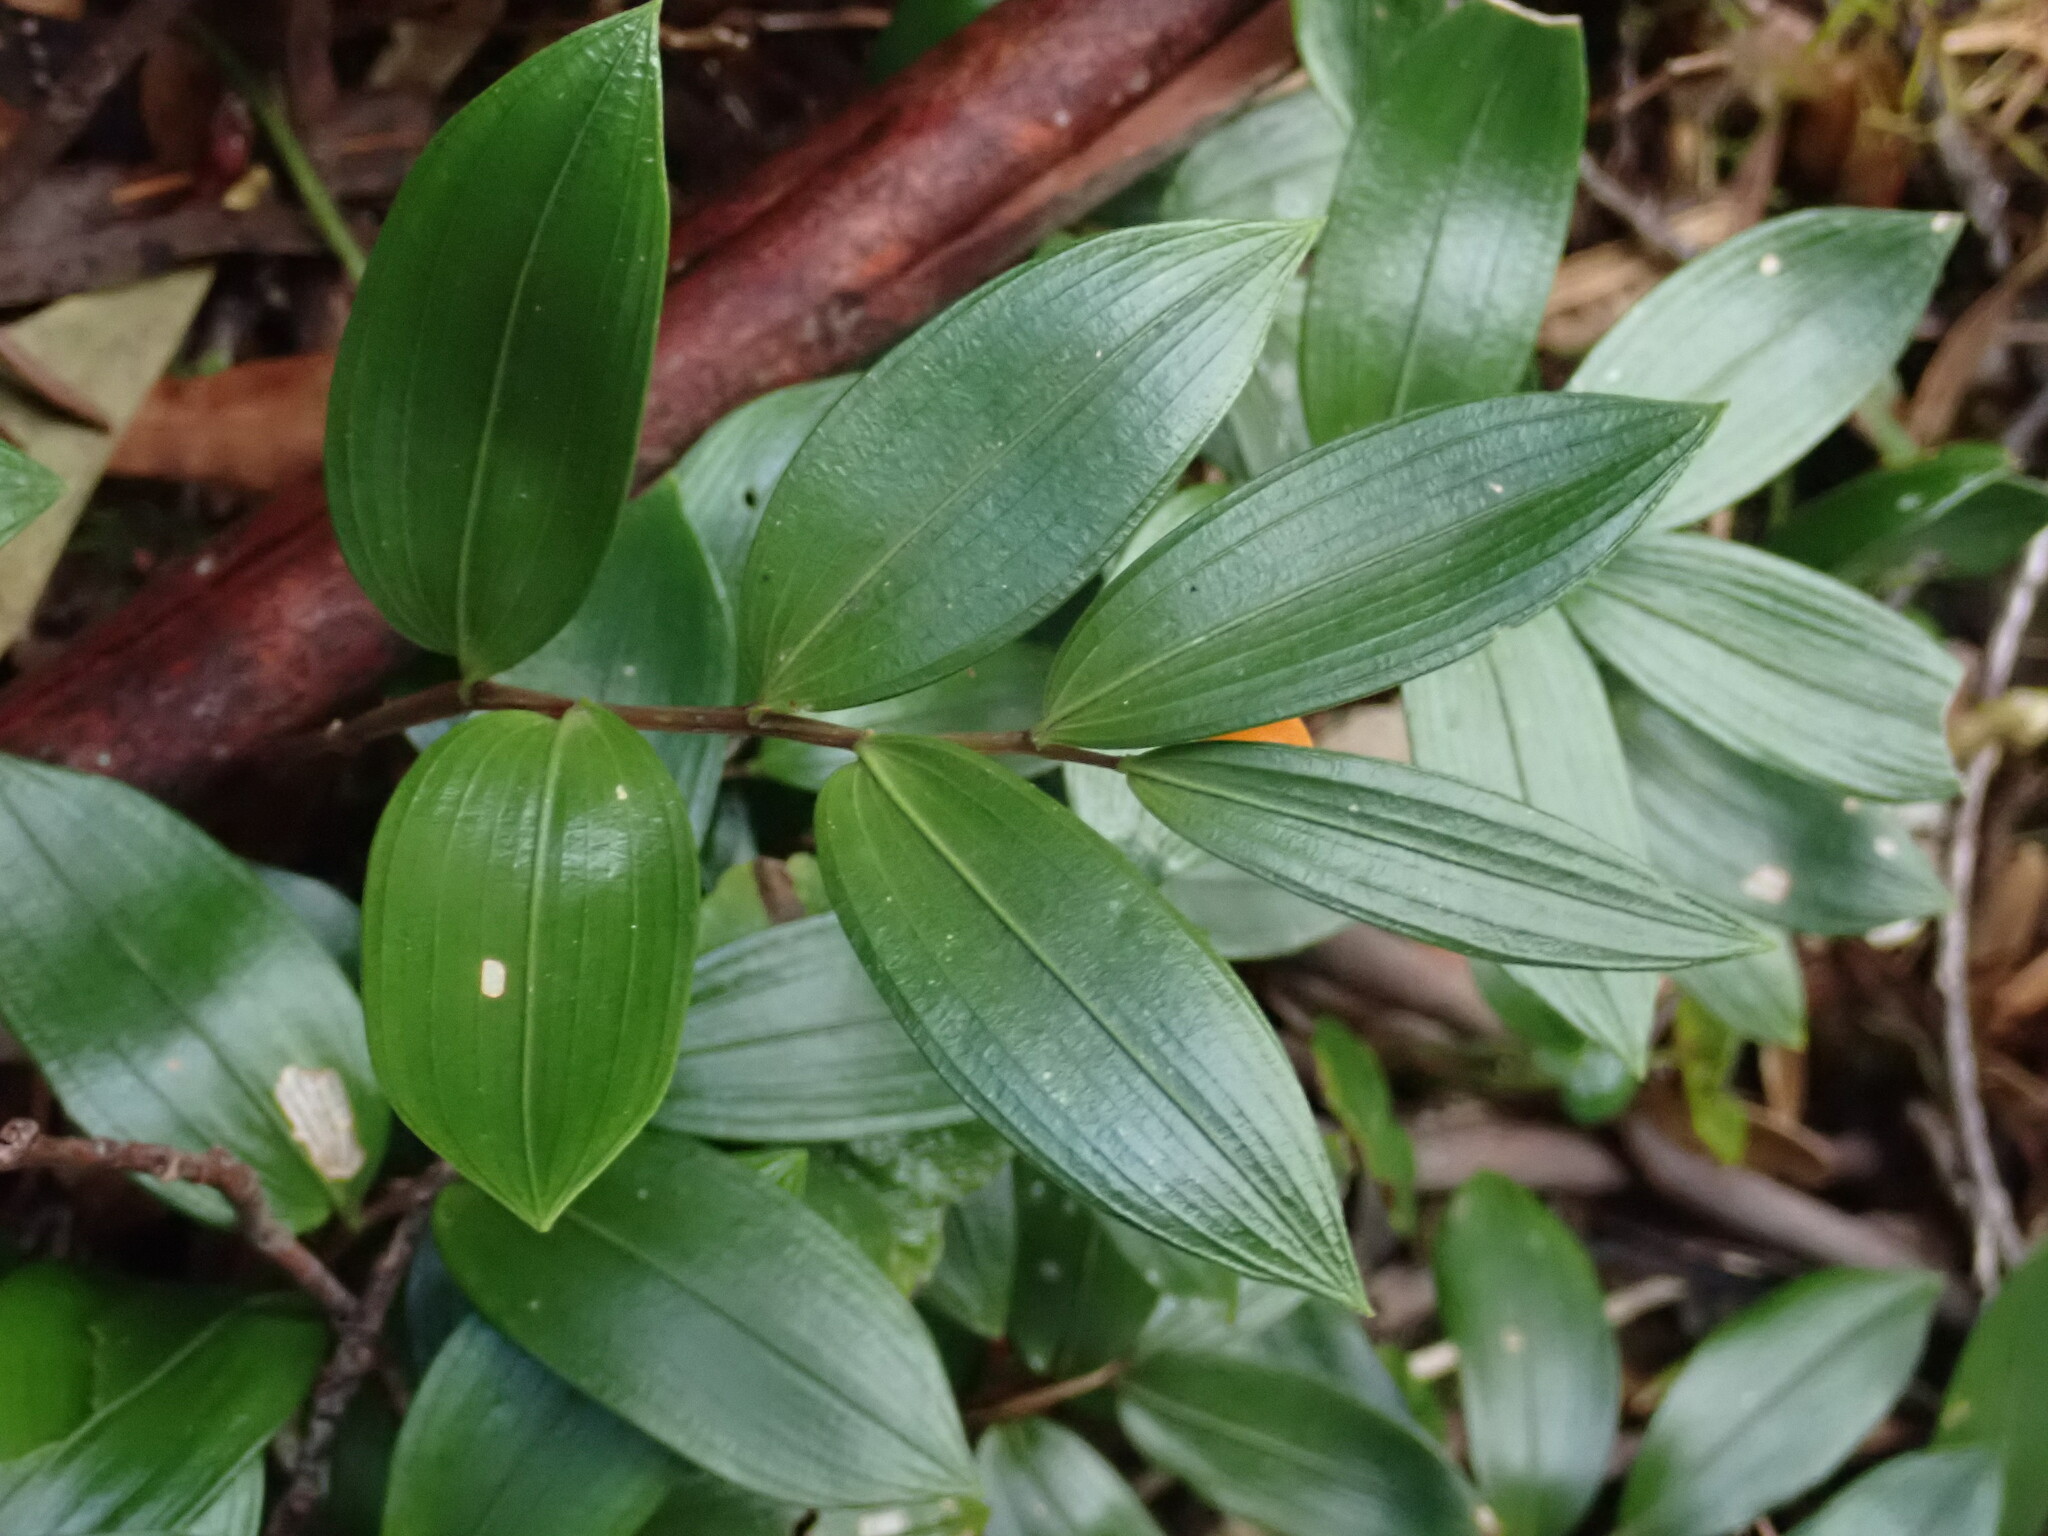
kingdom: Plantae
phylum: Tracheophyta
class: Liliopsida
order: Liliales
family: Alstroemeriaceae
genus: Drymophila
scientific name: Drymophila moorei
